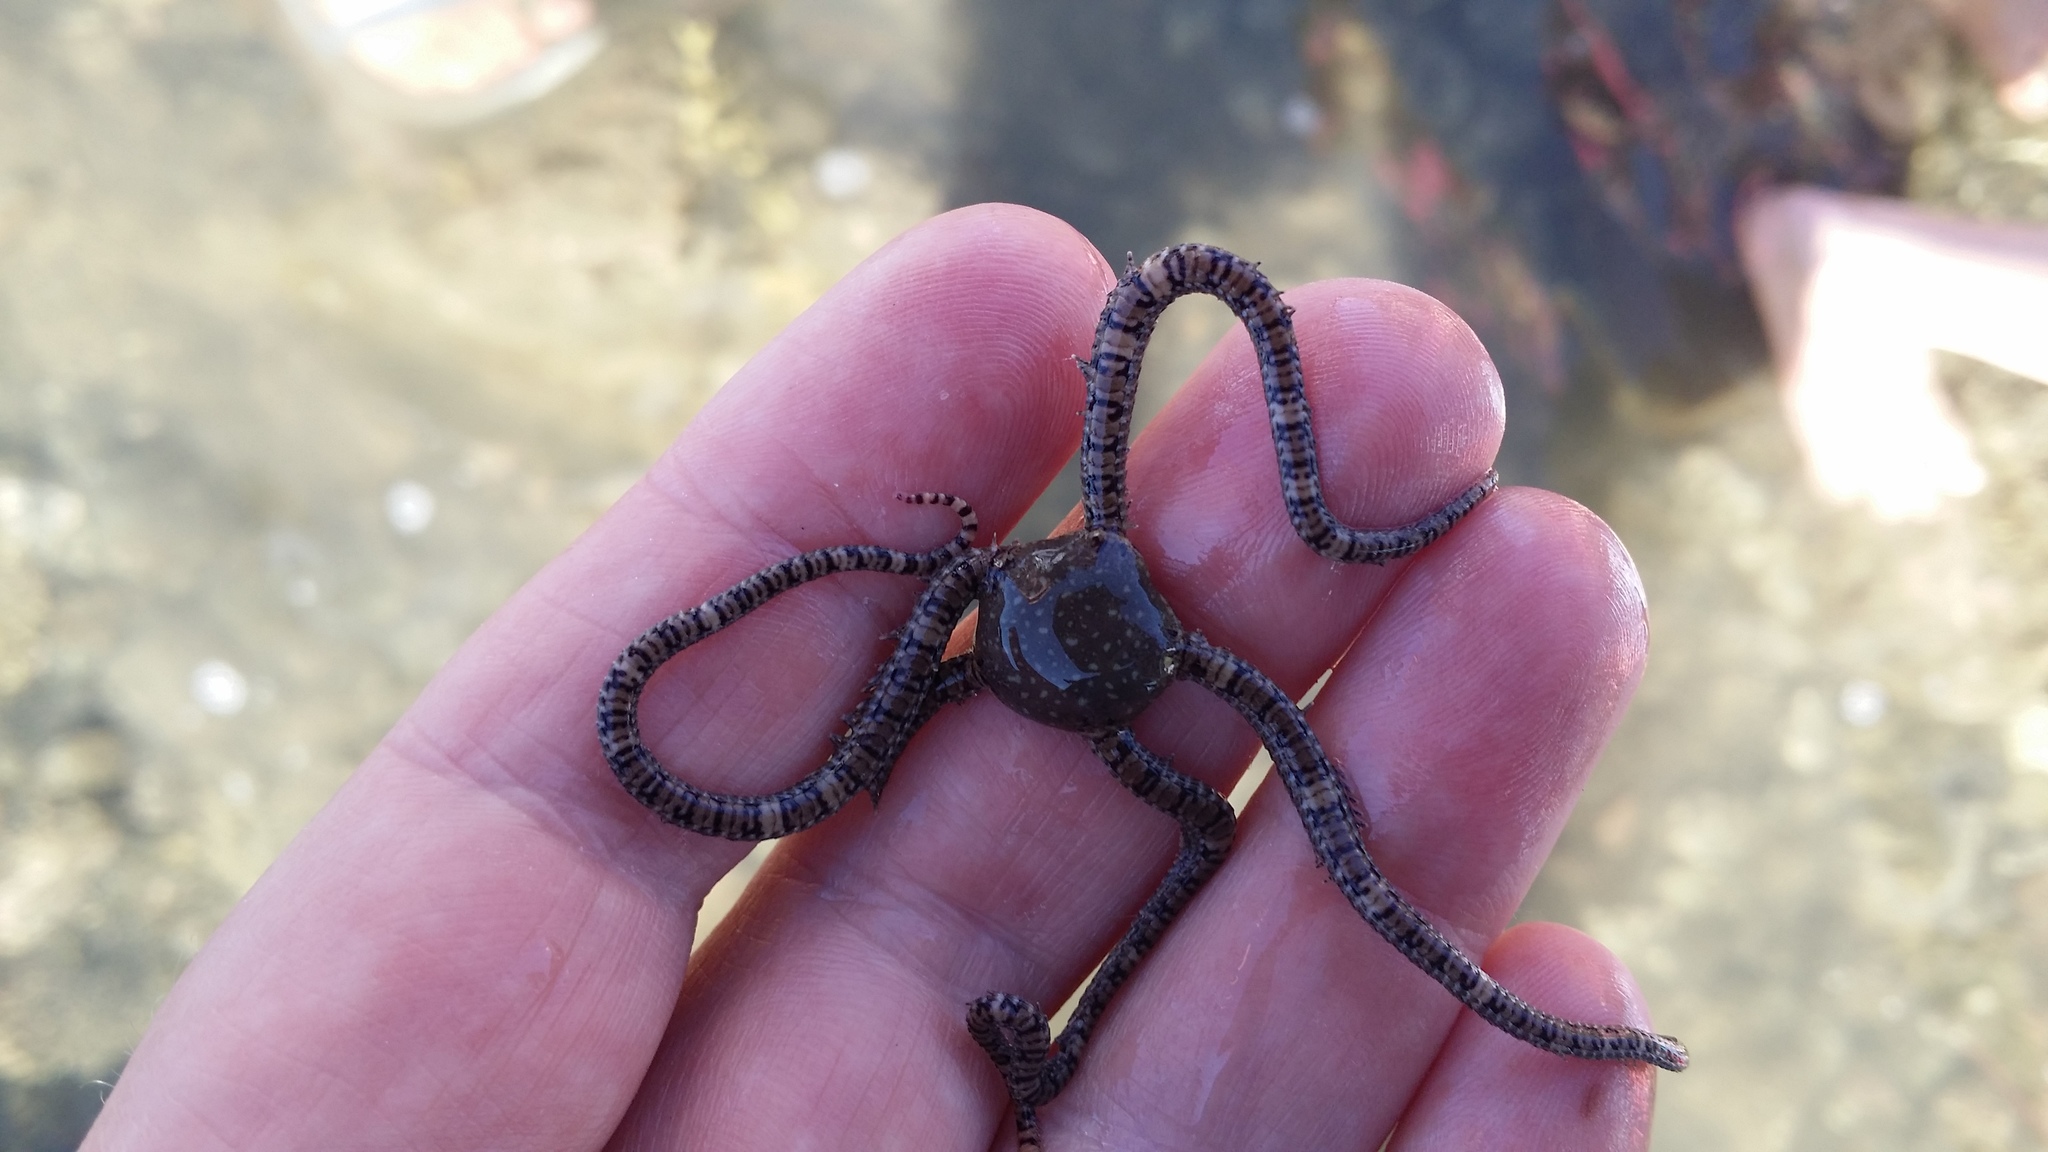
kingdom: Animalia
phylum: Echinodermata
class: Ophiuroidea
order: Amphilepidida
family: Ophionereididae
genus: Ophionereis
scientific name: Ophionereis fasciata
